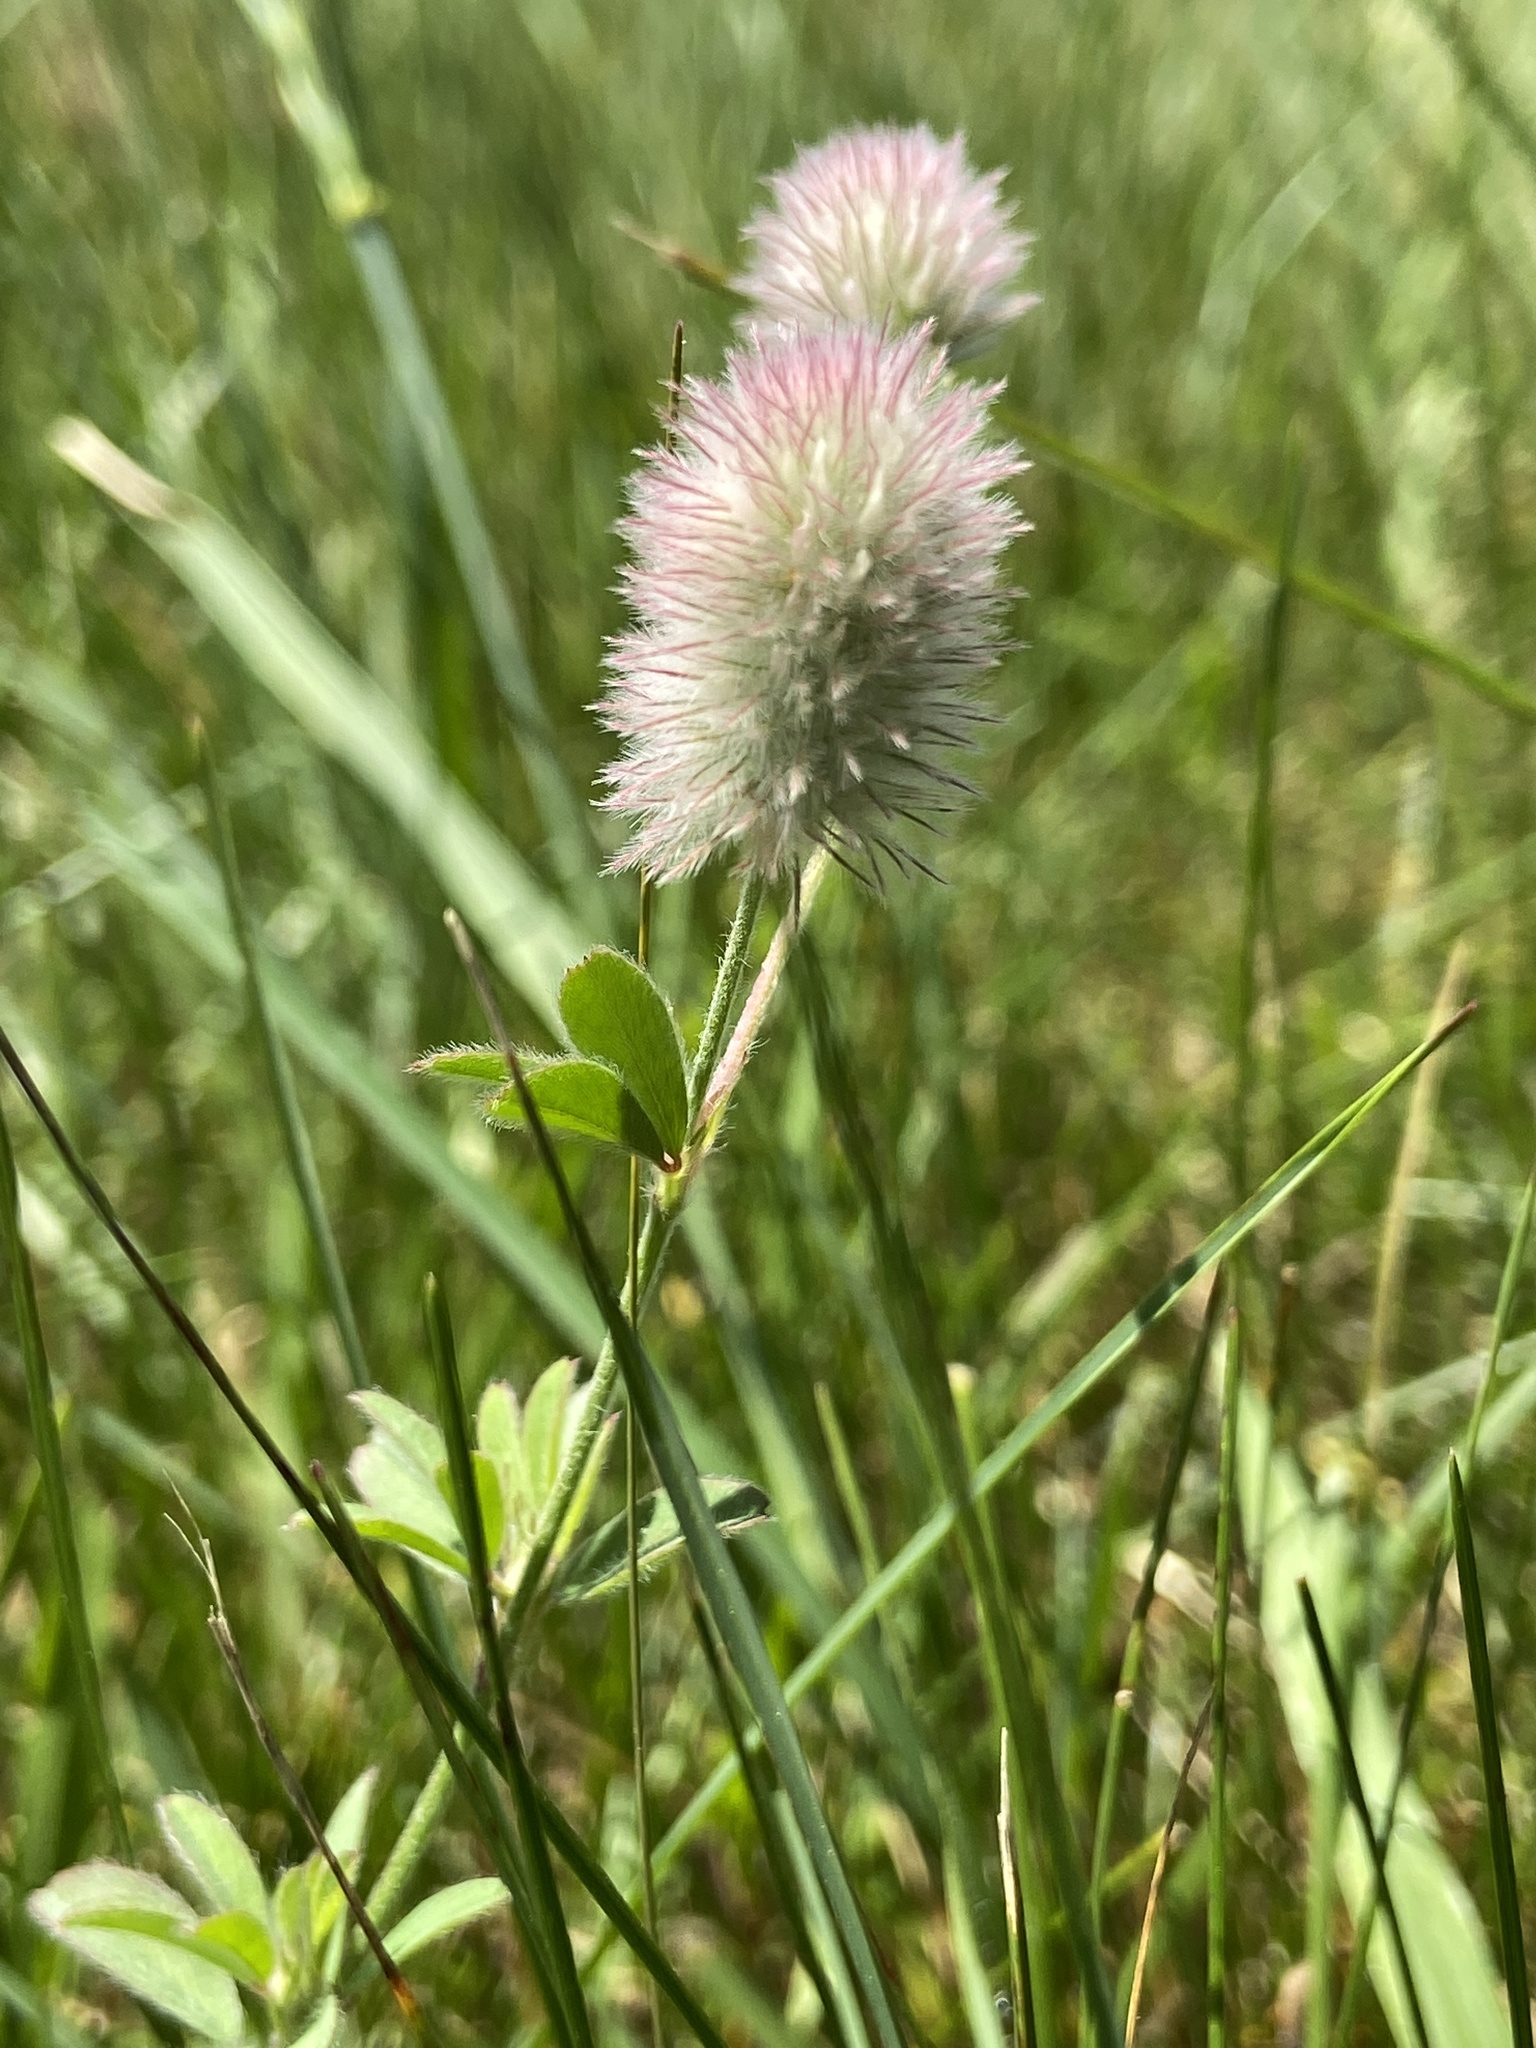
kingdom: Plantae
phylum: Tracheophyta
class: Magnoliopsida
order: Fabales
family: Fabaceae
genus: Trifolium
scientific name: Trifolium arvense
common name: Hare's-foot clover
